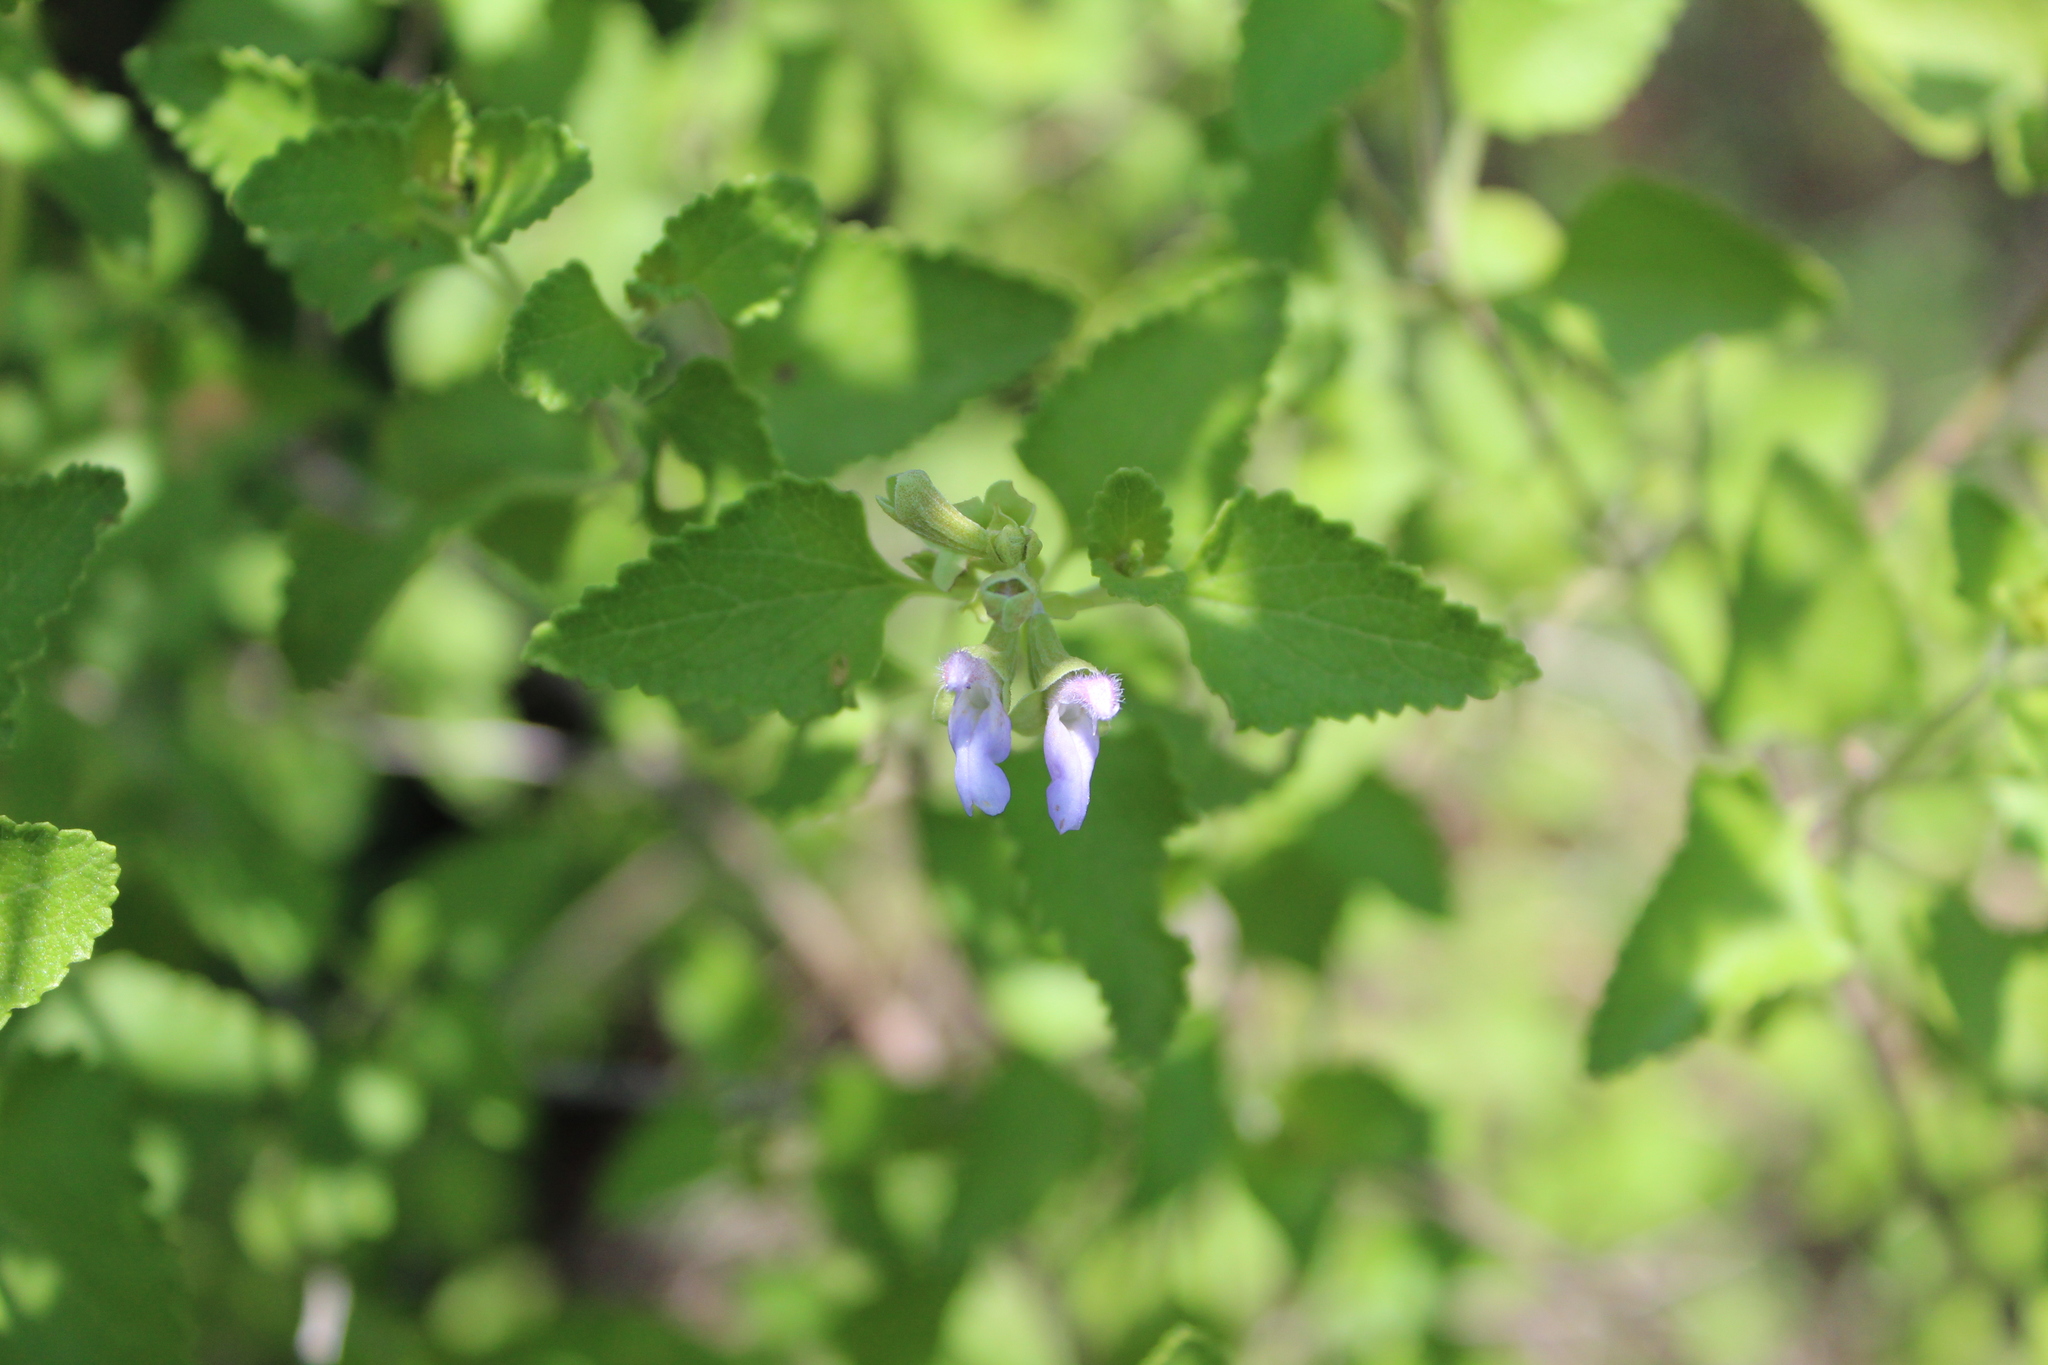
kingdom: Plantae
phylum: Tracheophyta
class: Magnoliopsida
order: Lamiales
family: Lamiaceae
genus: Salvia
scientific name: Salvia ballotiflora
